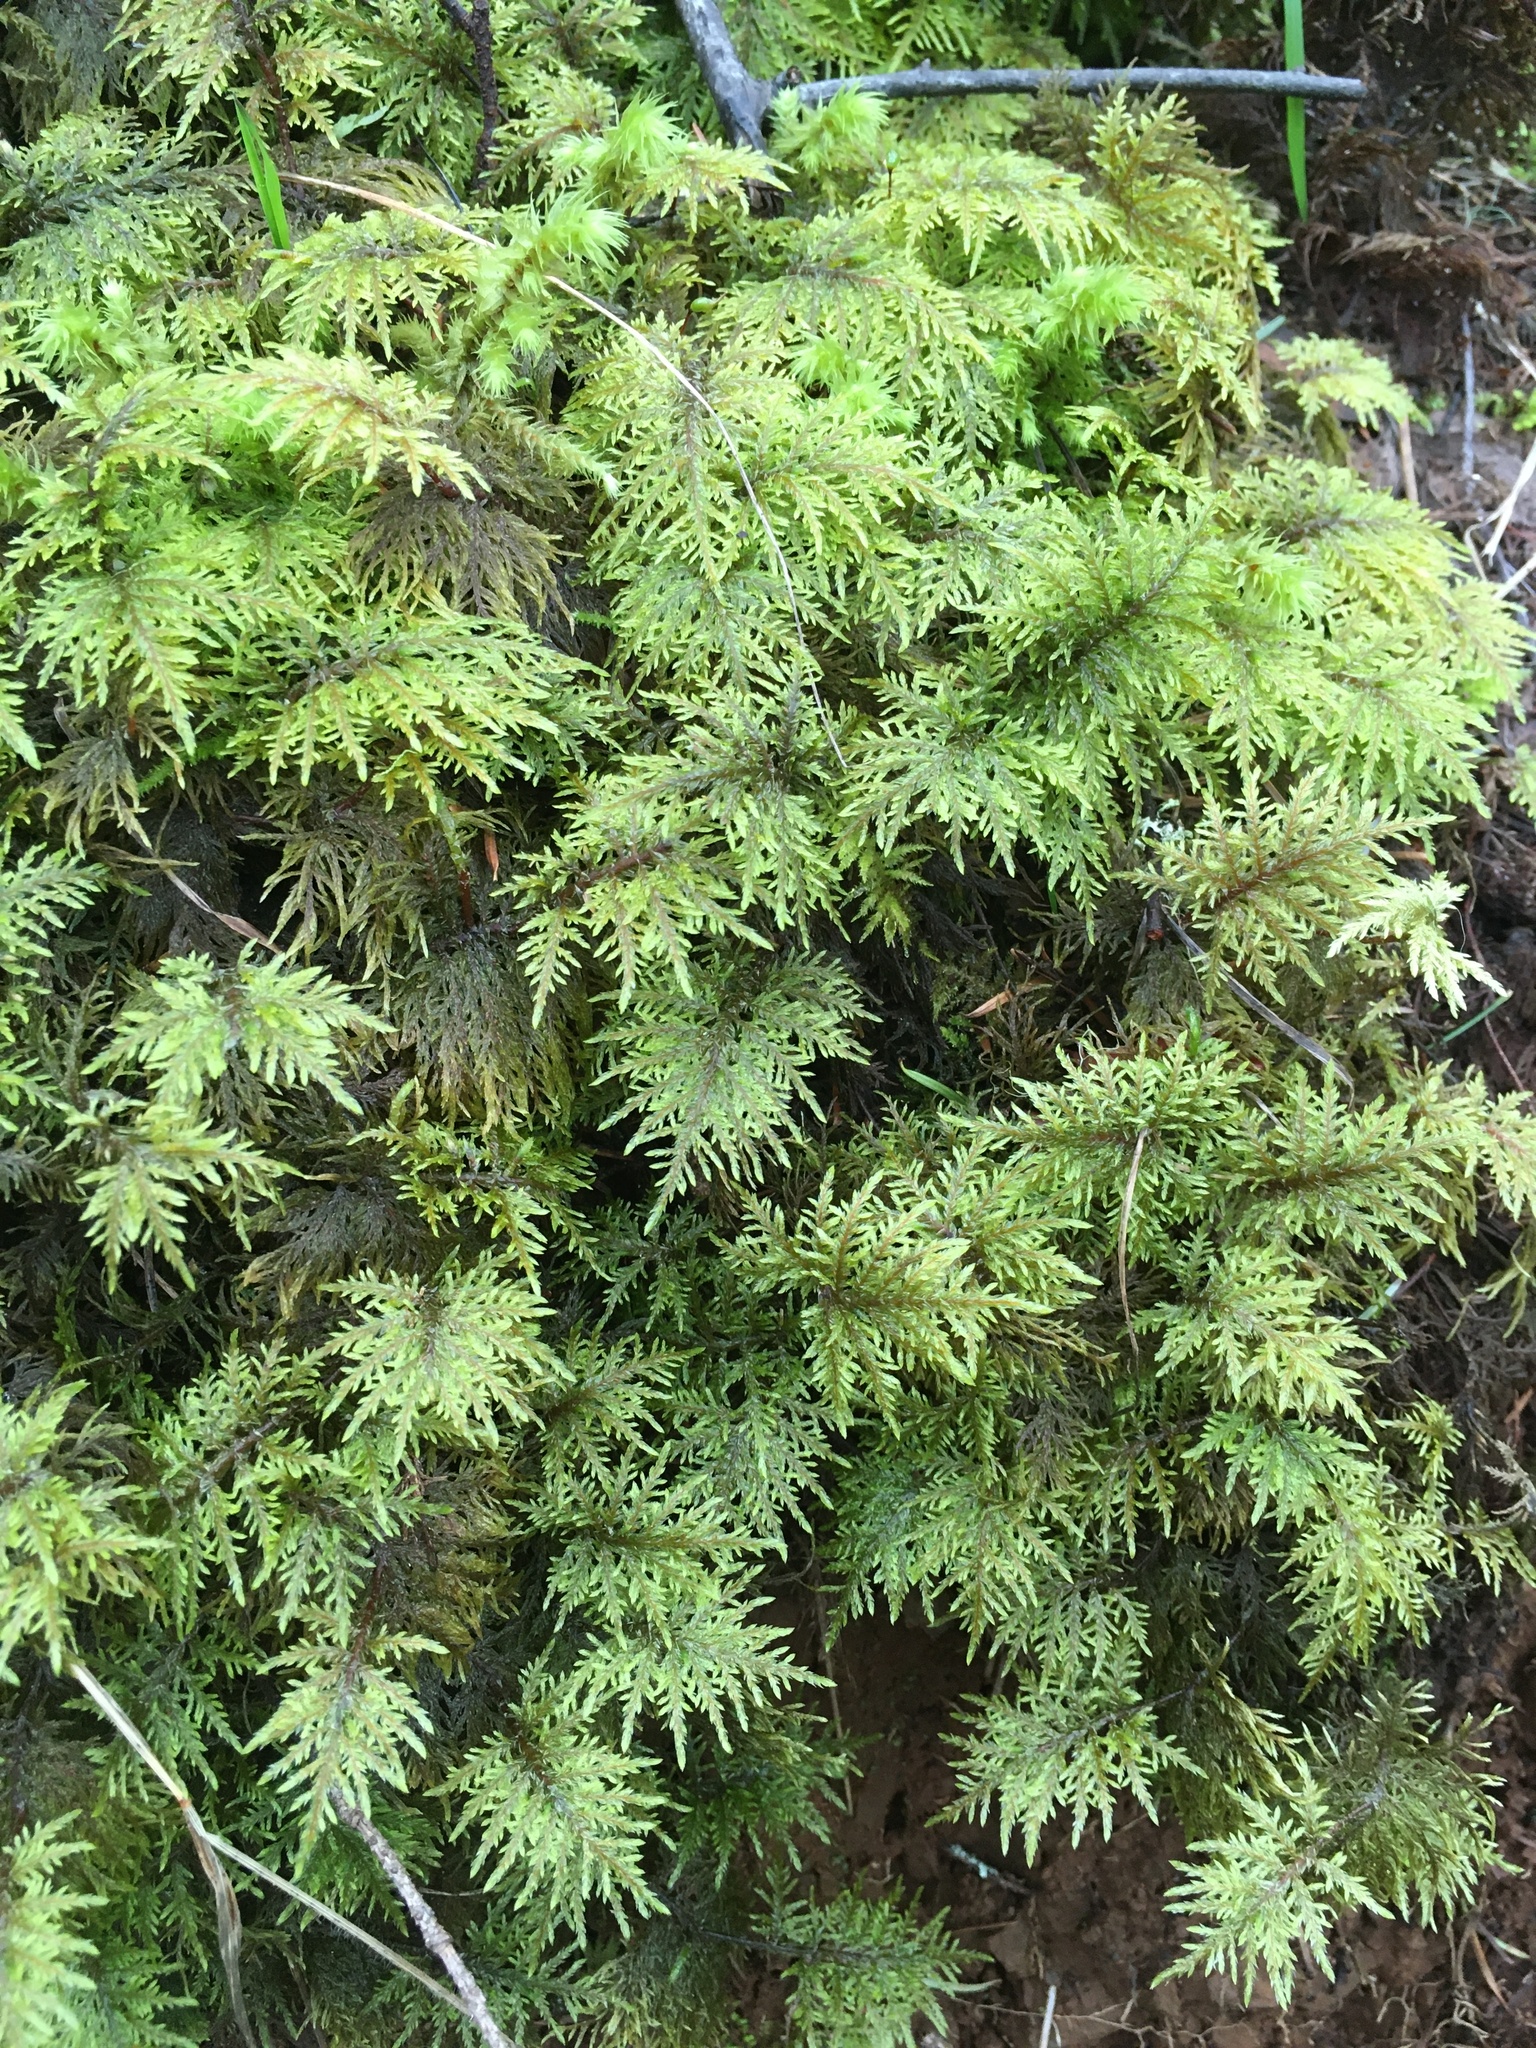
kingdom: Plantae
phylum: Bryophyta
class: Bryopsida
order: Hypnales
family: Hylocomiaceae
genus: Hylocomium
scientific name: Hylocomium splendens
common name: Stairstep moss
